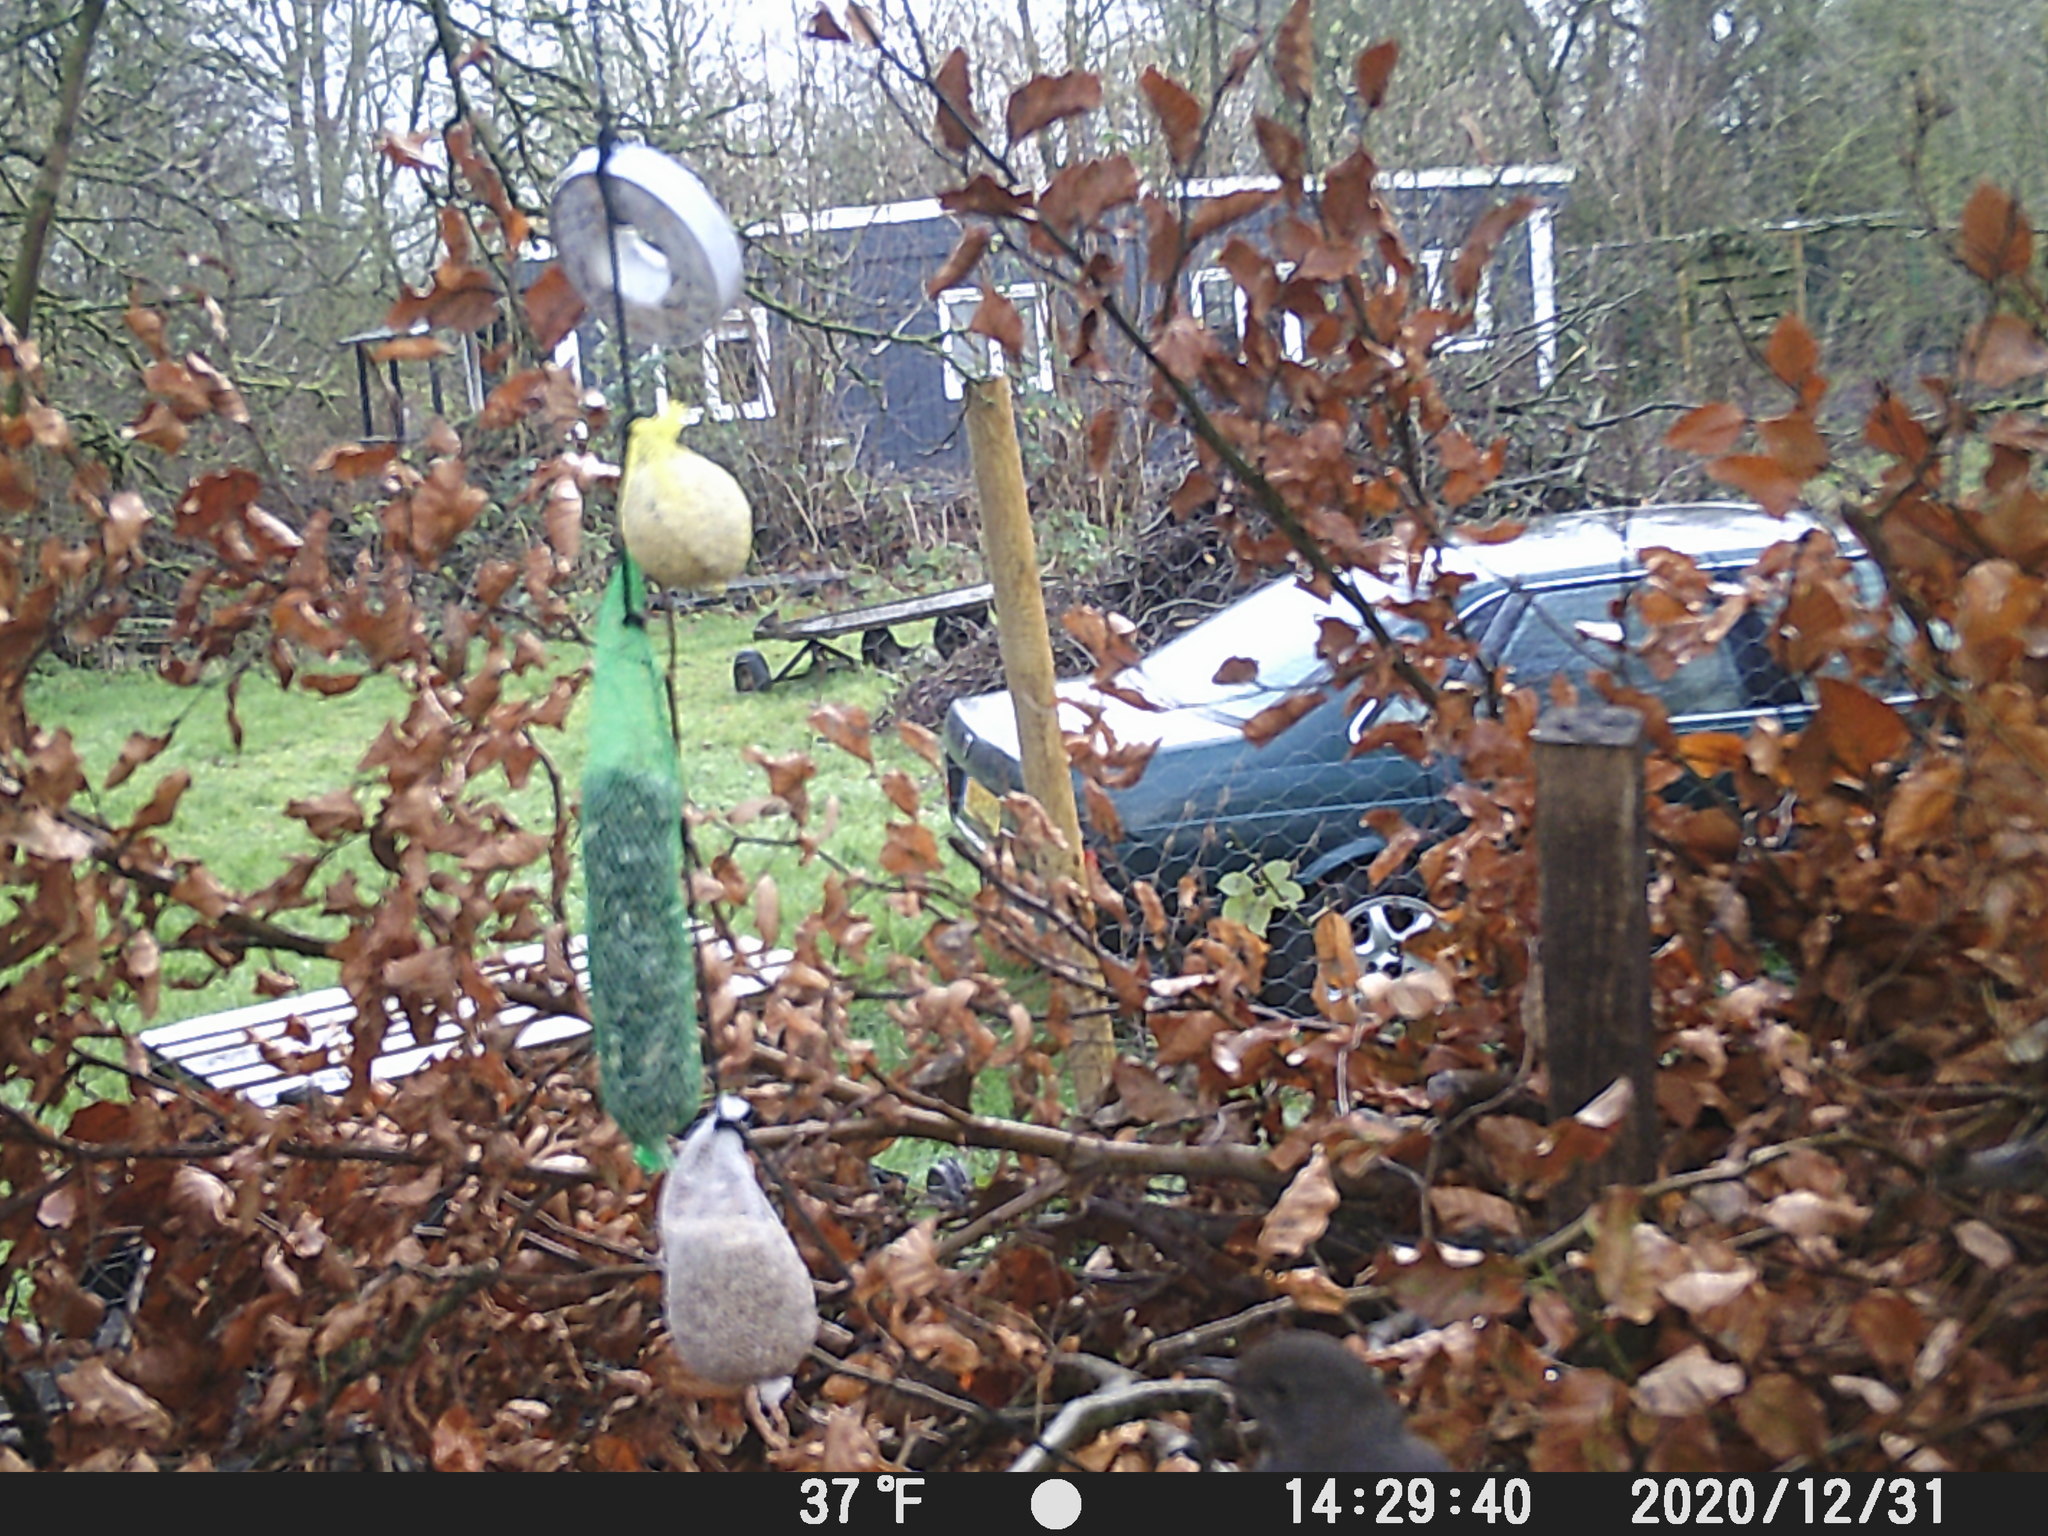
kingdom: Animalia
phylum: Chordata
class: Aves
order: Passeriformes
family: Turdidae
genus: Turdus
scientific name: Turdus merula
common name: Common blackbird
